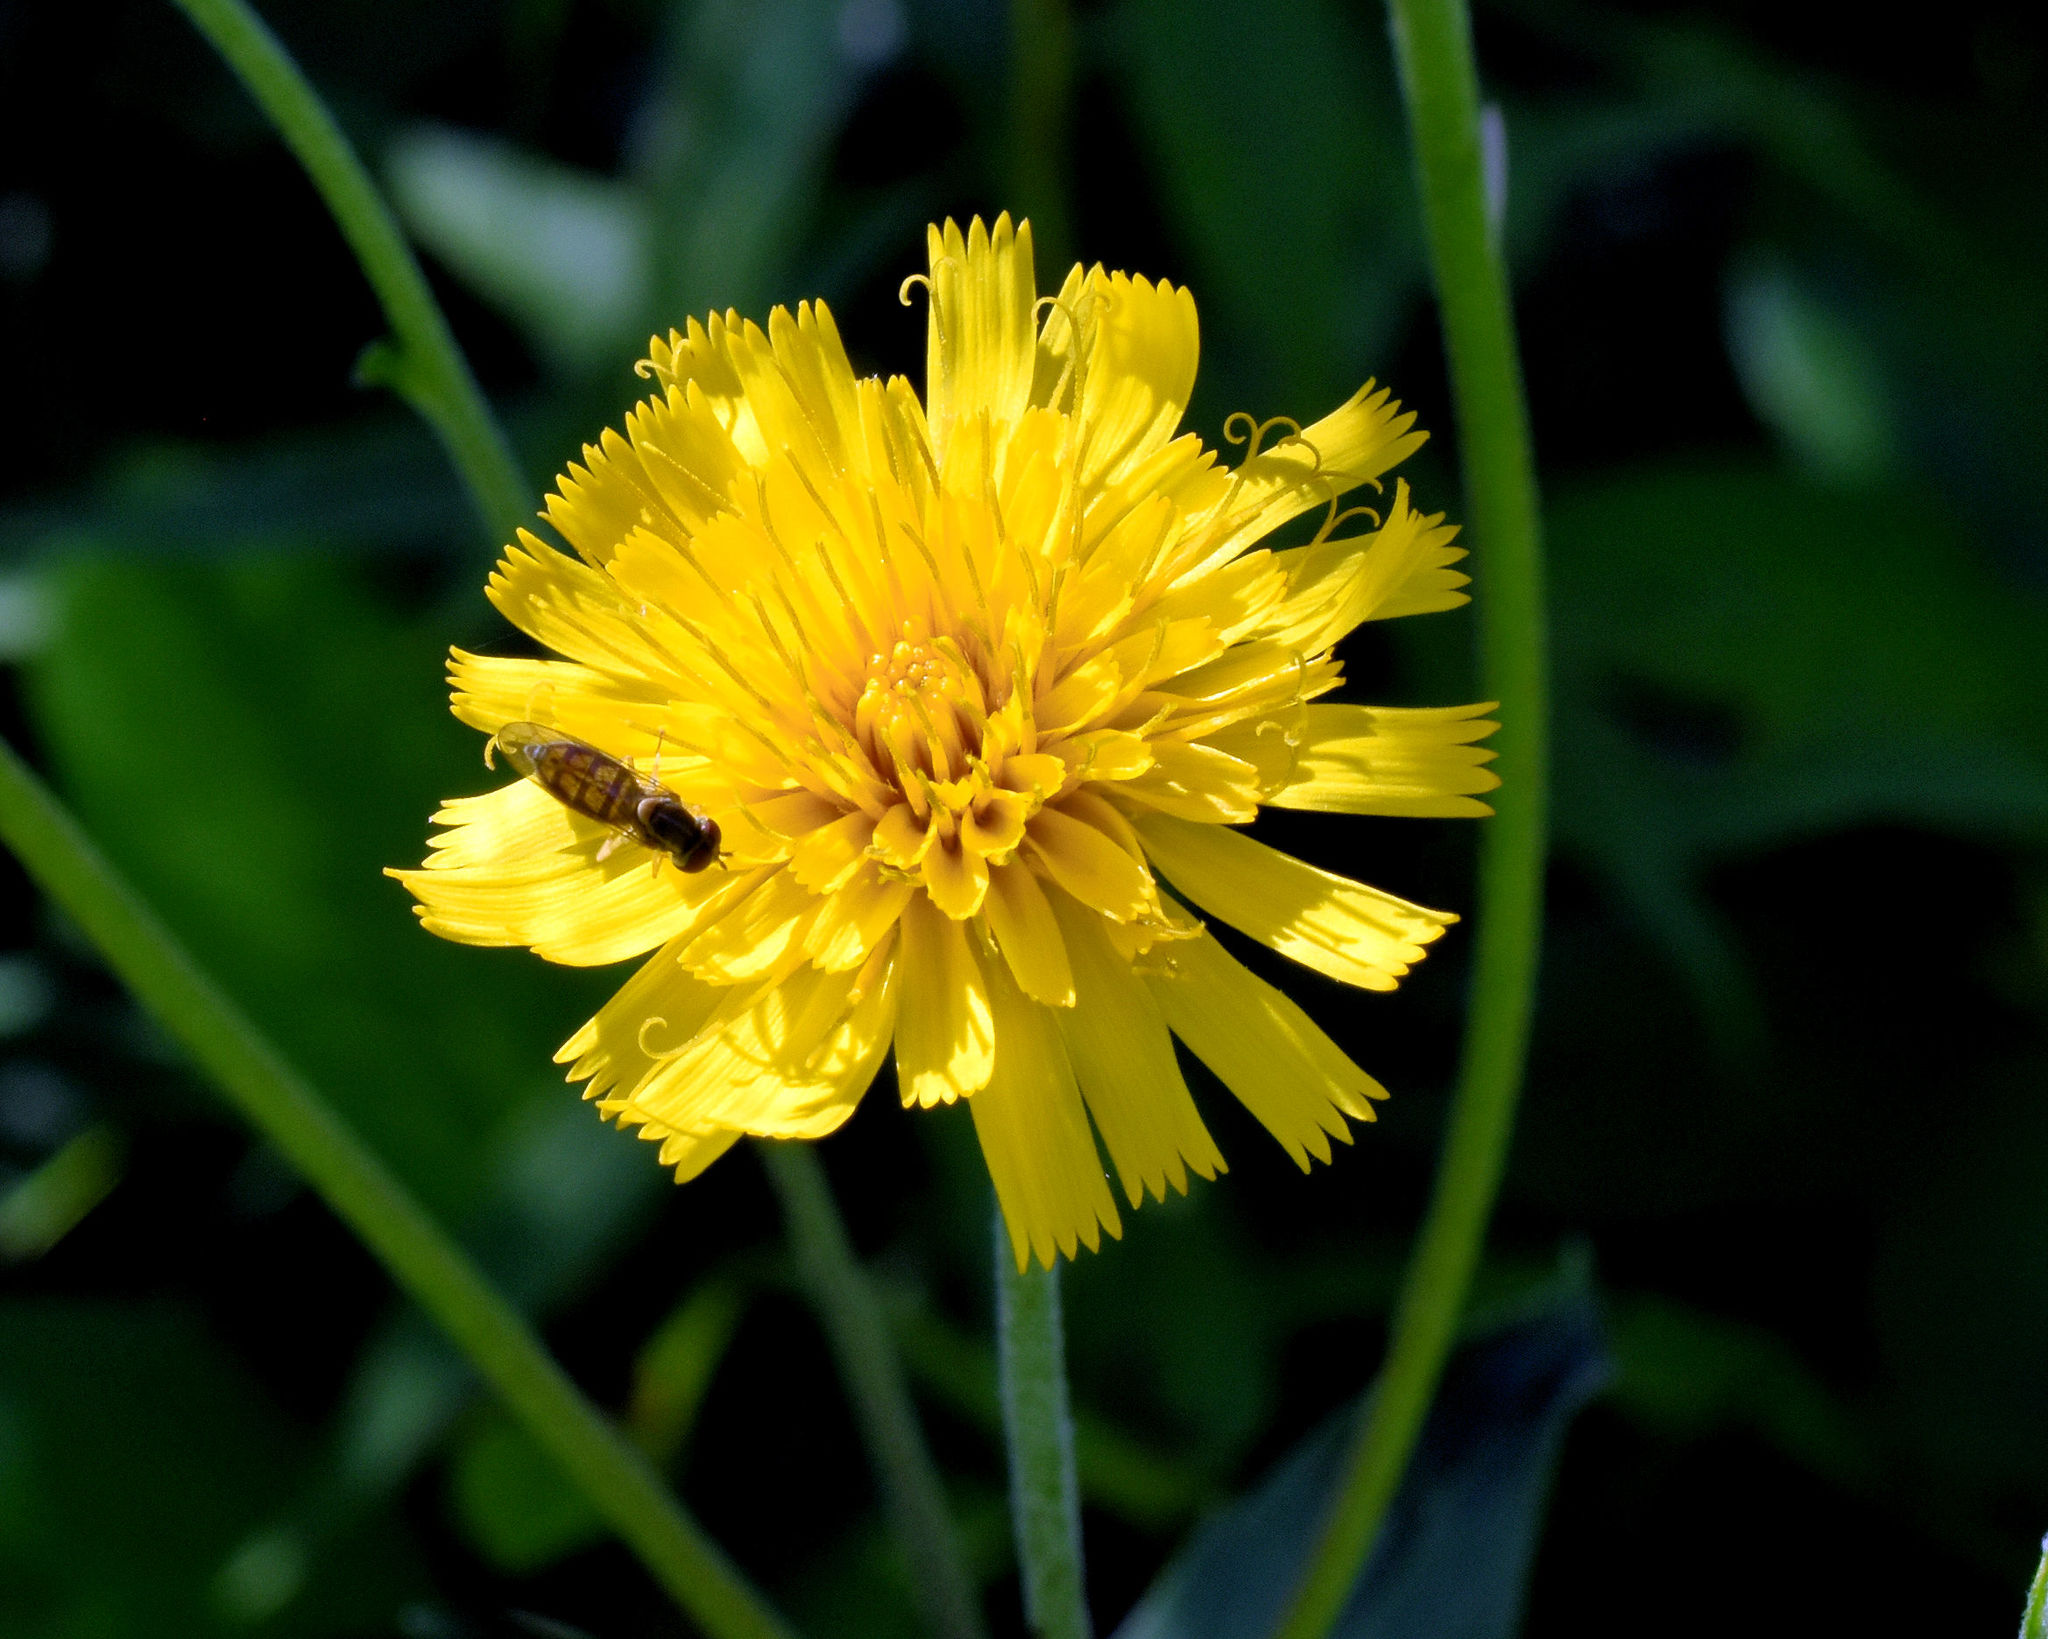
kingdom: Plantae
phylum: Tracheophyta
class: Magnoliopsida
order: Asterales
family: Asteraceae
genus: Hieracium
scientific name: Hieracium umbellatum
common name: Northern hawkweed
